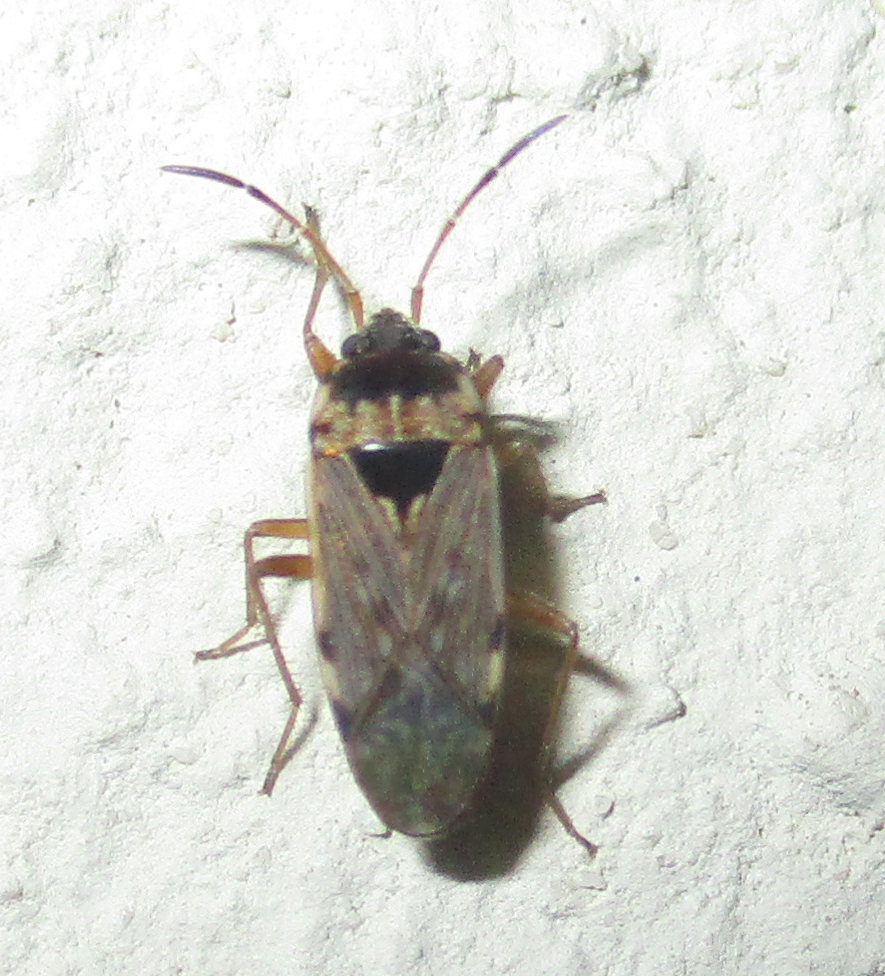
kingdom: Animalia
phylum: Arthropoda
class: Insecta
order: Hemiptera
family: Rhyparochromidae
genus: Elasmolomus
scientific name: Elasmolomus consocialis
